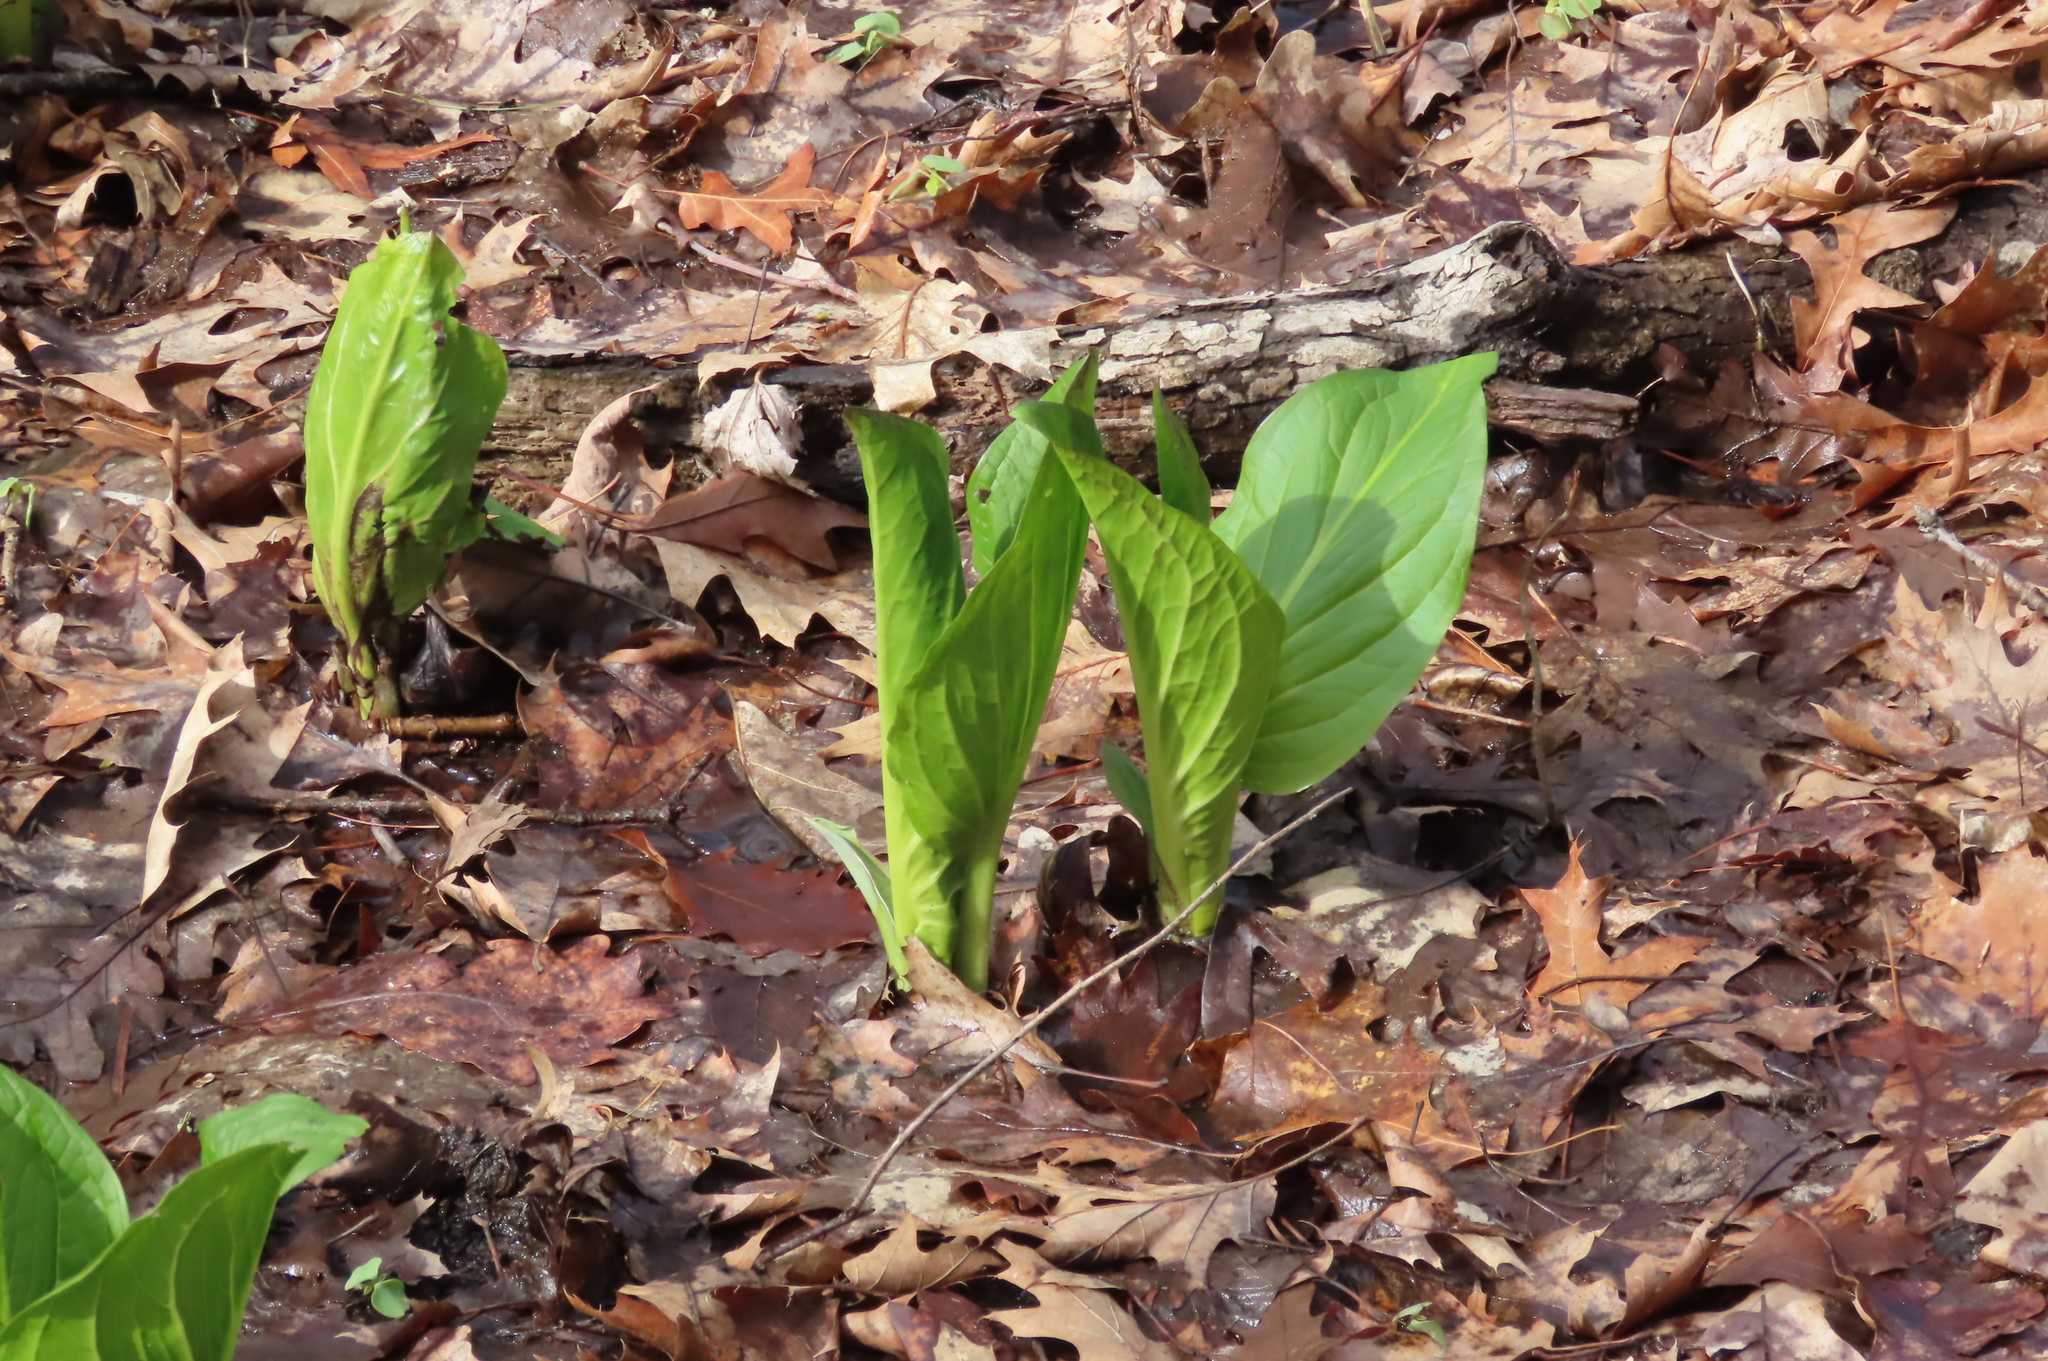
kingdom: Plantae
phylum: Tracheophyta
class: Liliopsida
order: Alismatales
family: Araceae
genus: Symplocarpus
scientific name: Symplocarpus foetidus
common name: Eastern skunk cabbage
